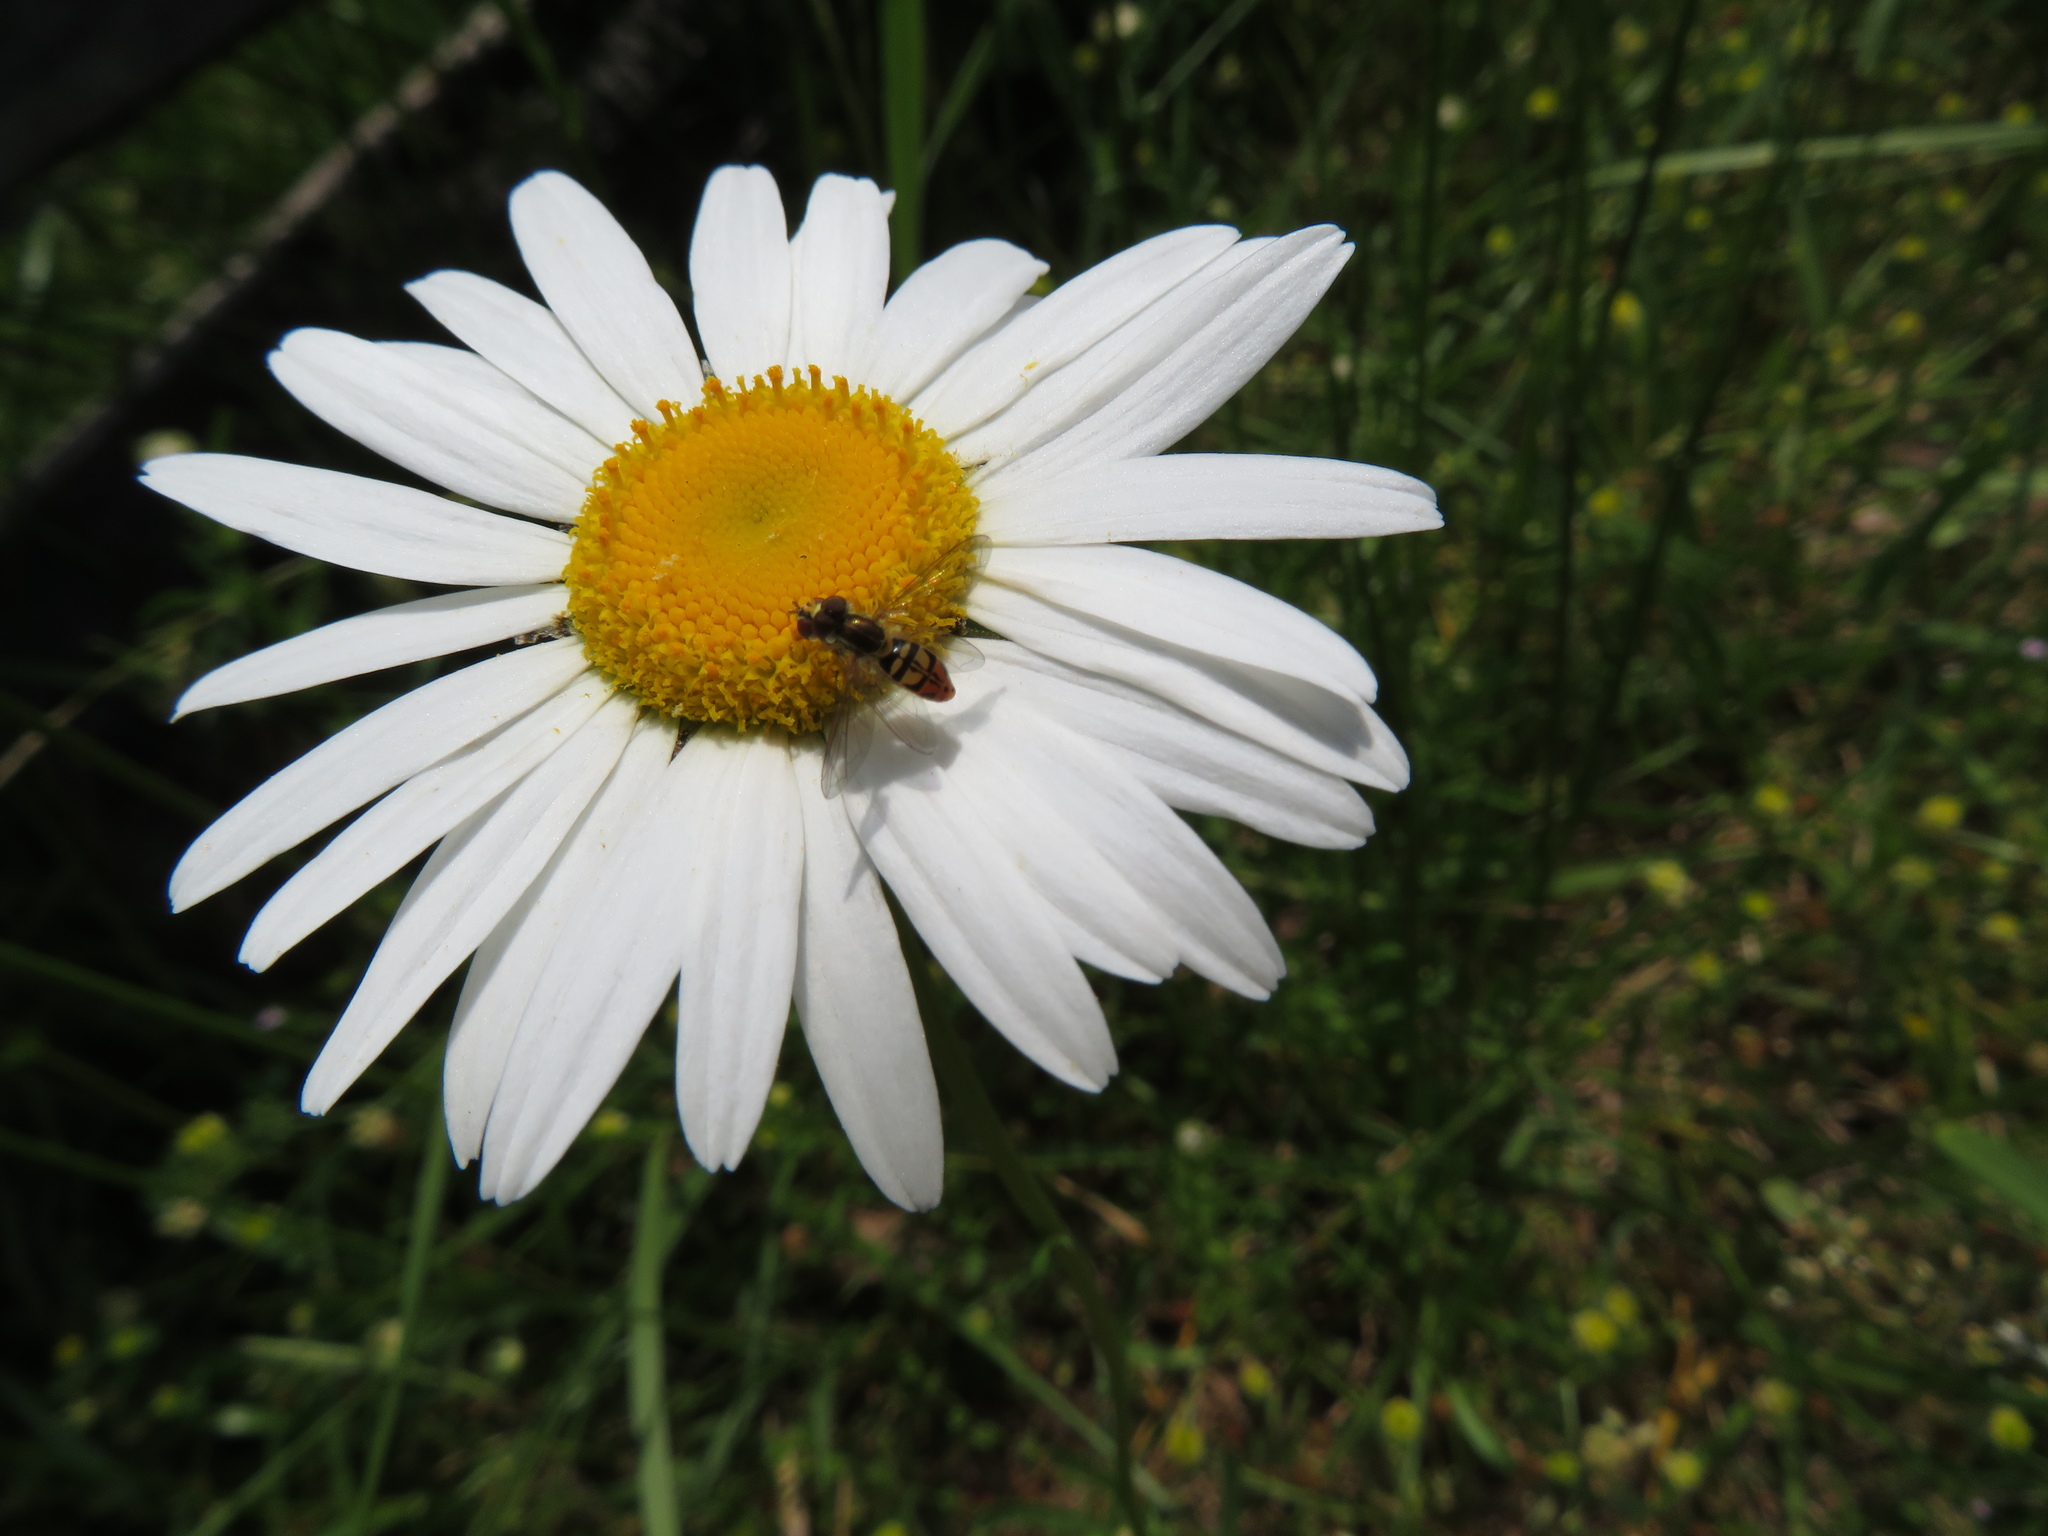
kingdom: Animalia
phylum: Arthropoda
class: Insecta
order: Diptera
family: Syrphidae
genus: Toxomerus
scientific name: Toxomerus marginatus
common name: Syrphid fly
